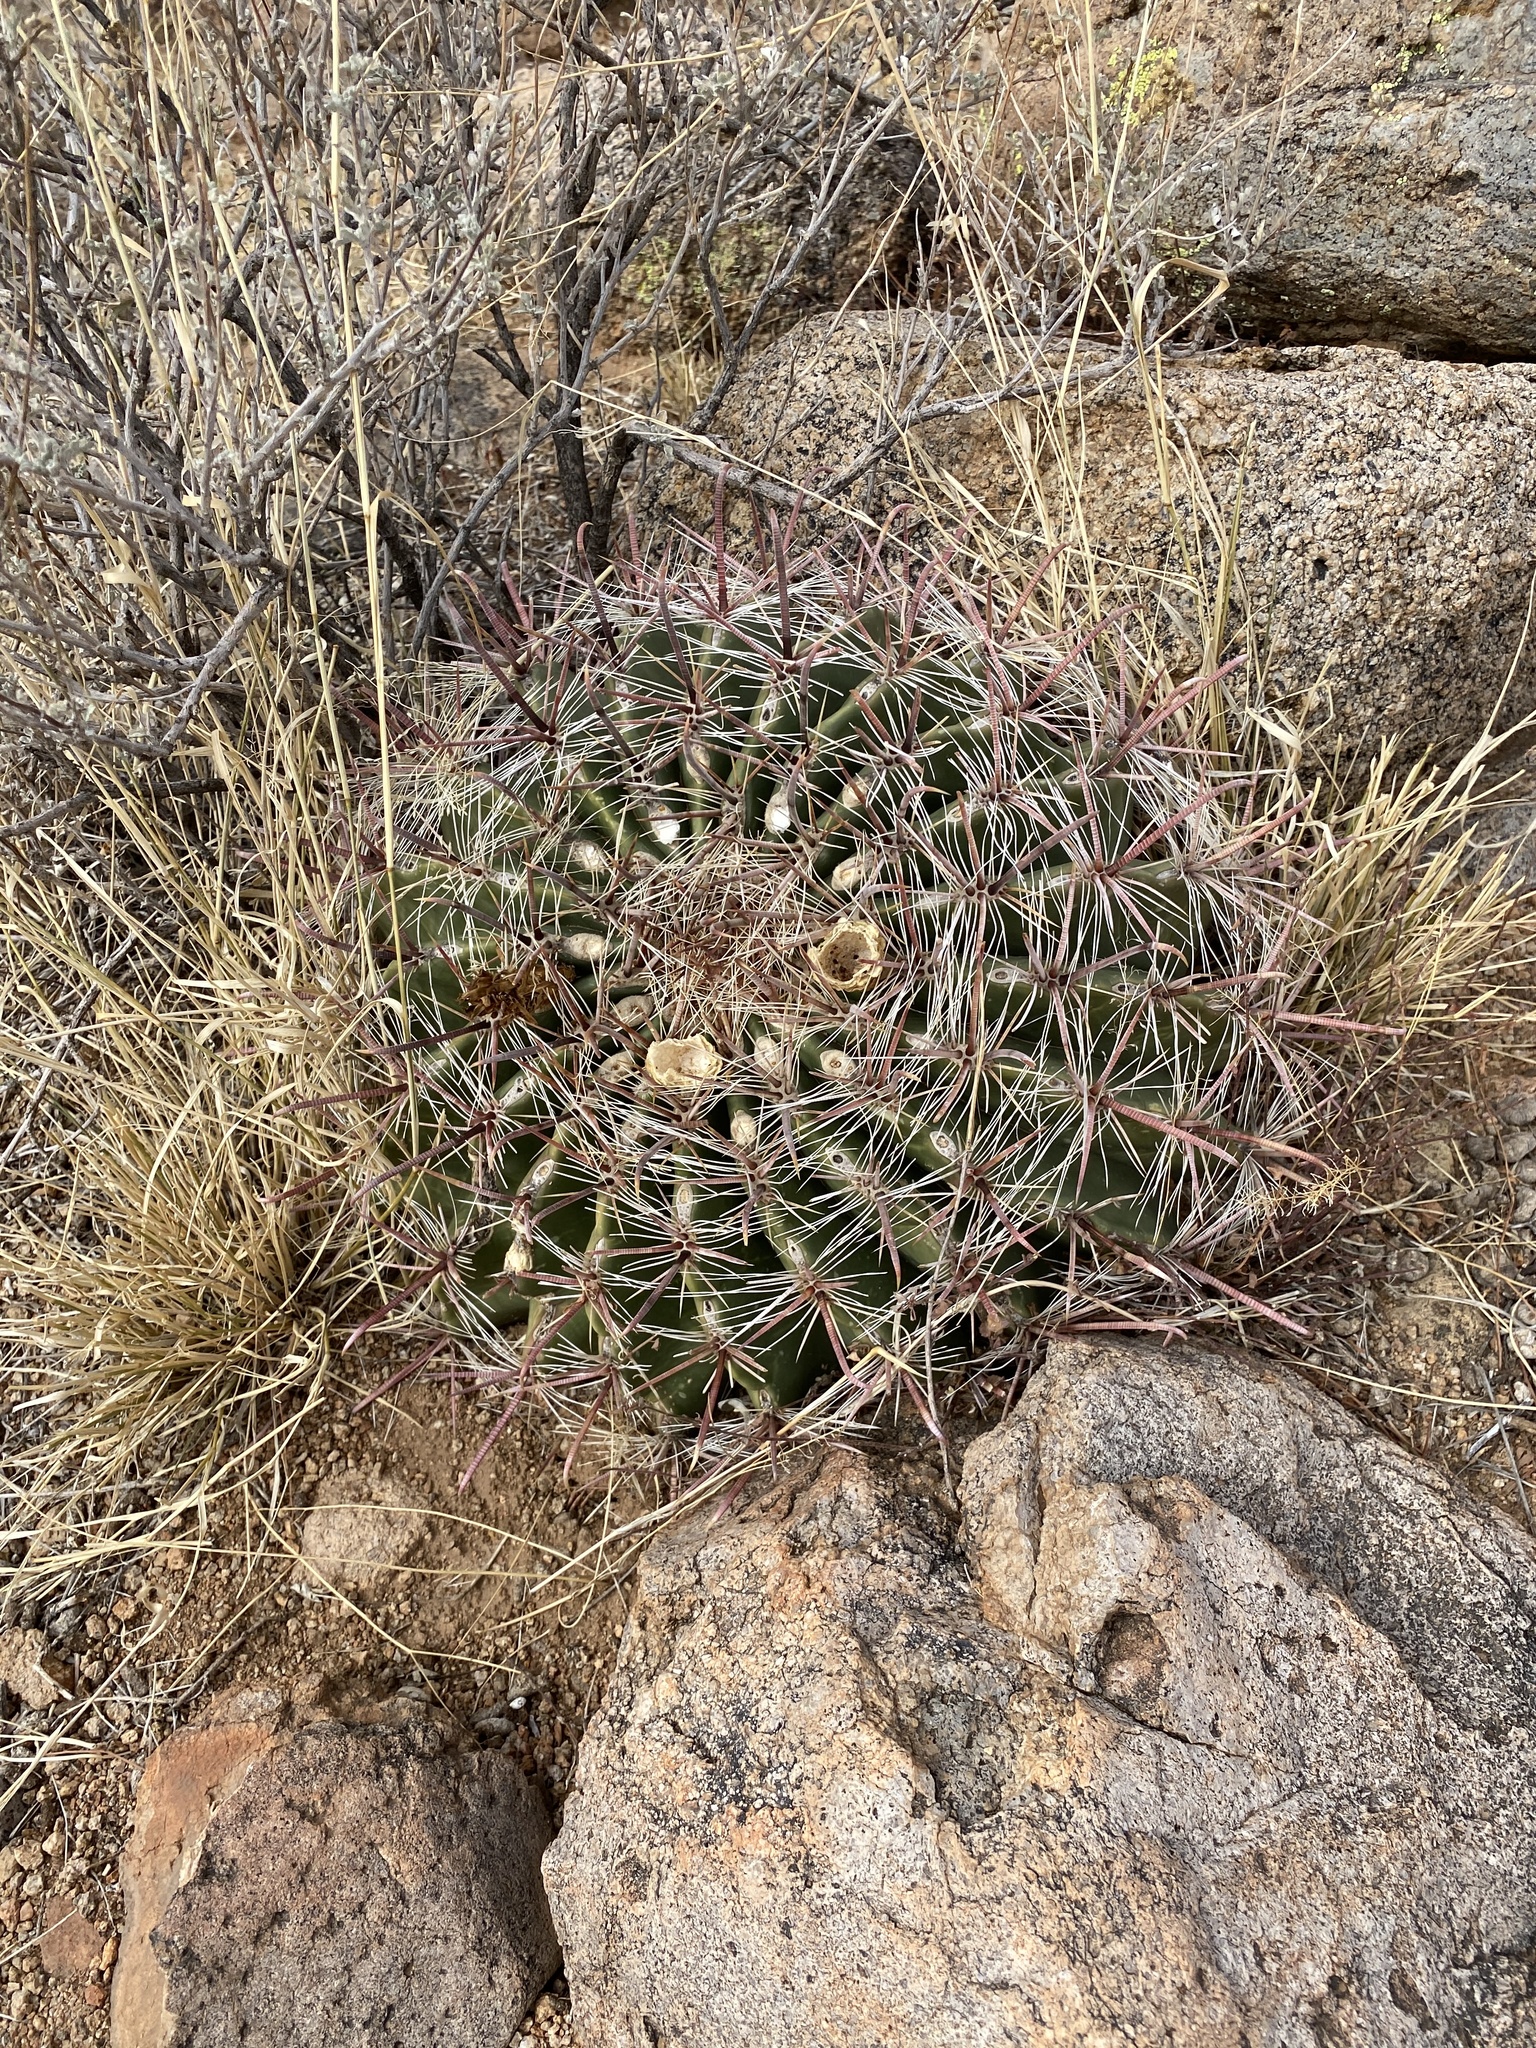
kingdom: Plantae
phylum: Tracheophyta
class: Magnoliopsida
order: Caryophyllales
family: Cactaceae
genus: Ferocactus
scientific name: Ferocactus wislizeni
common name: Candy barrel cactus
